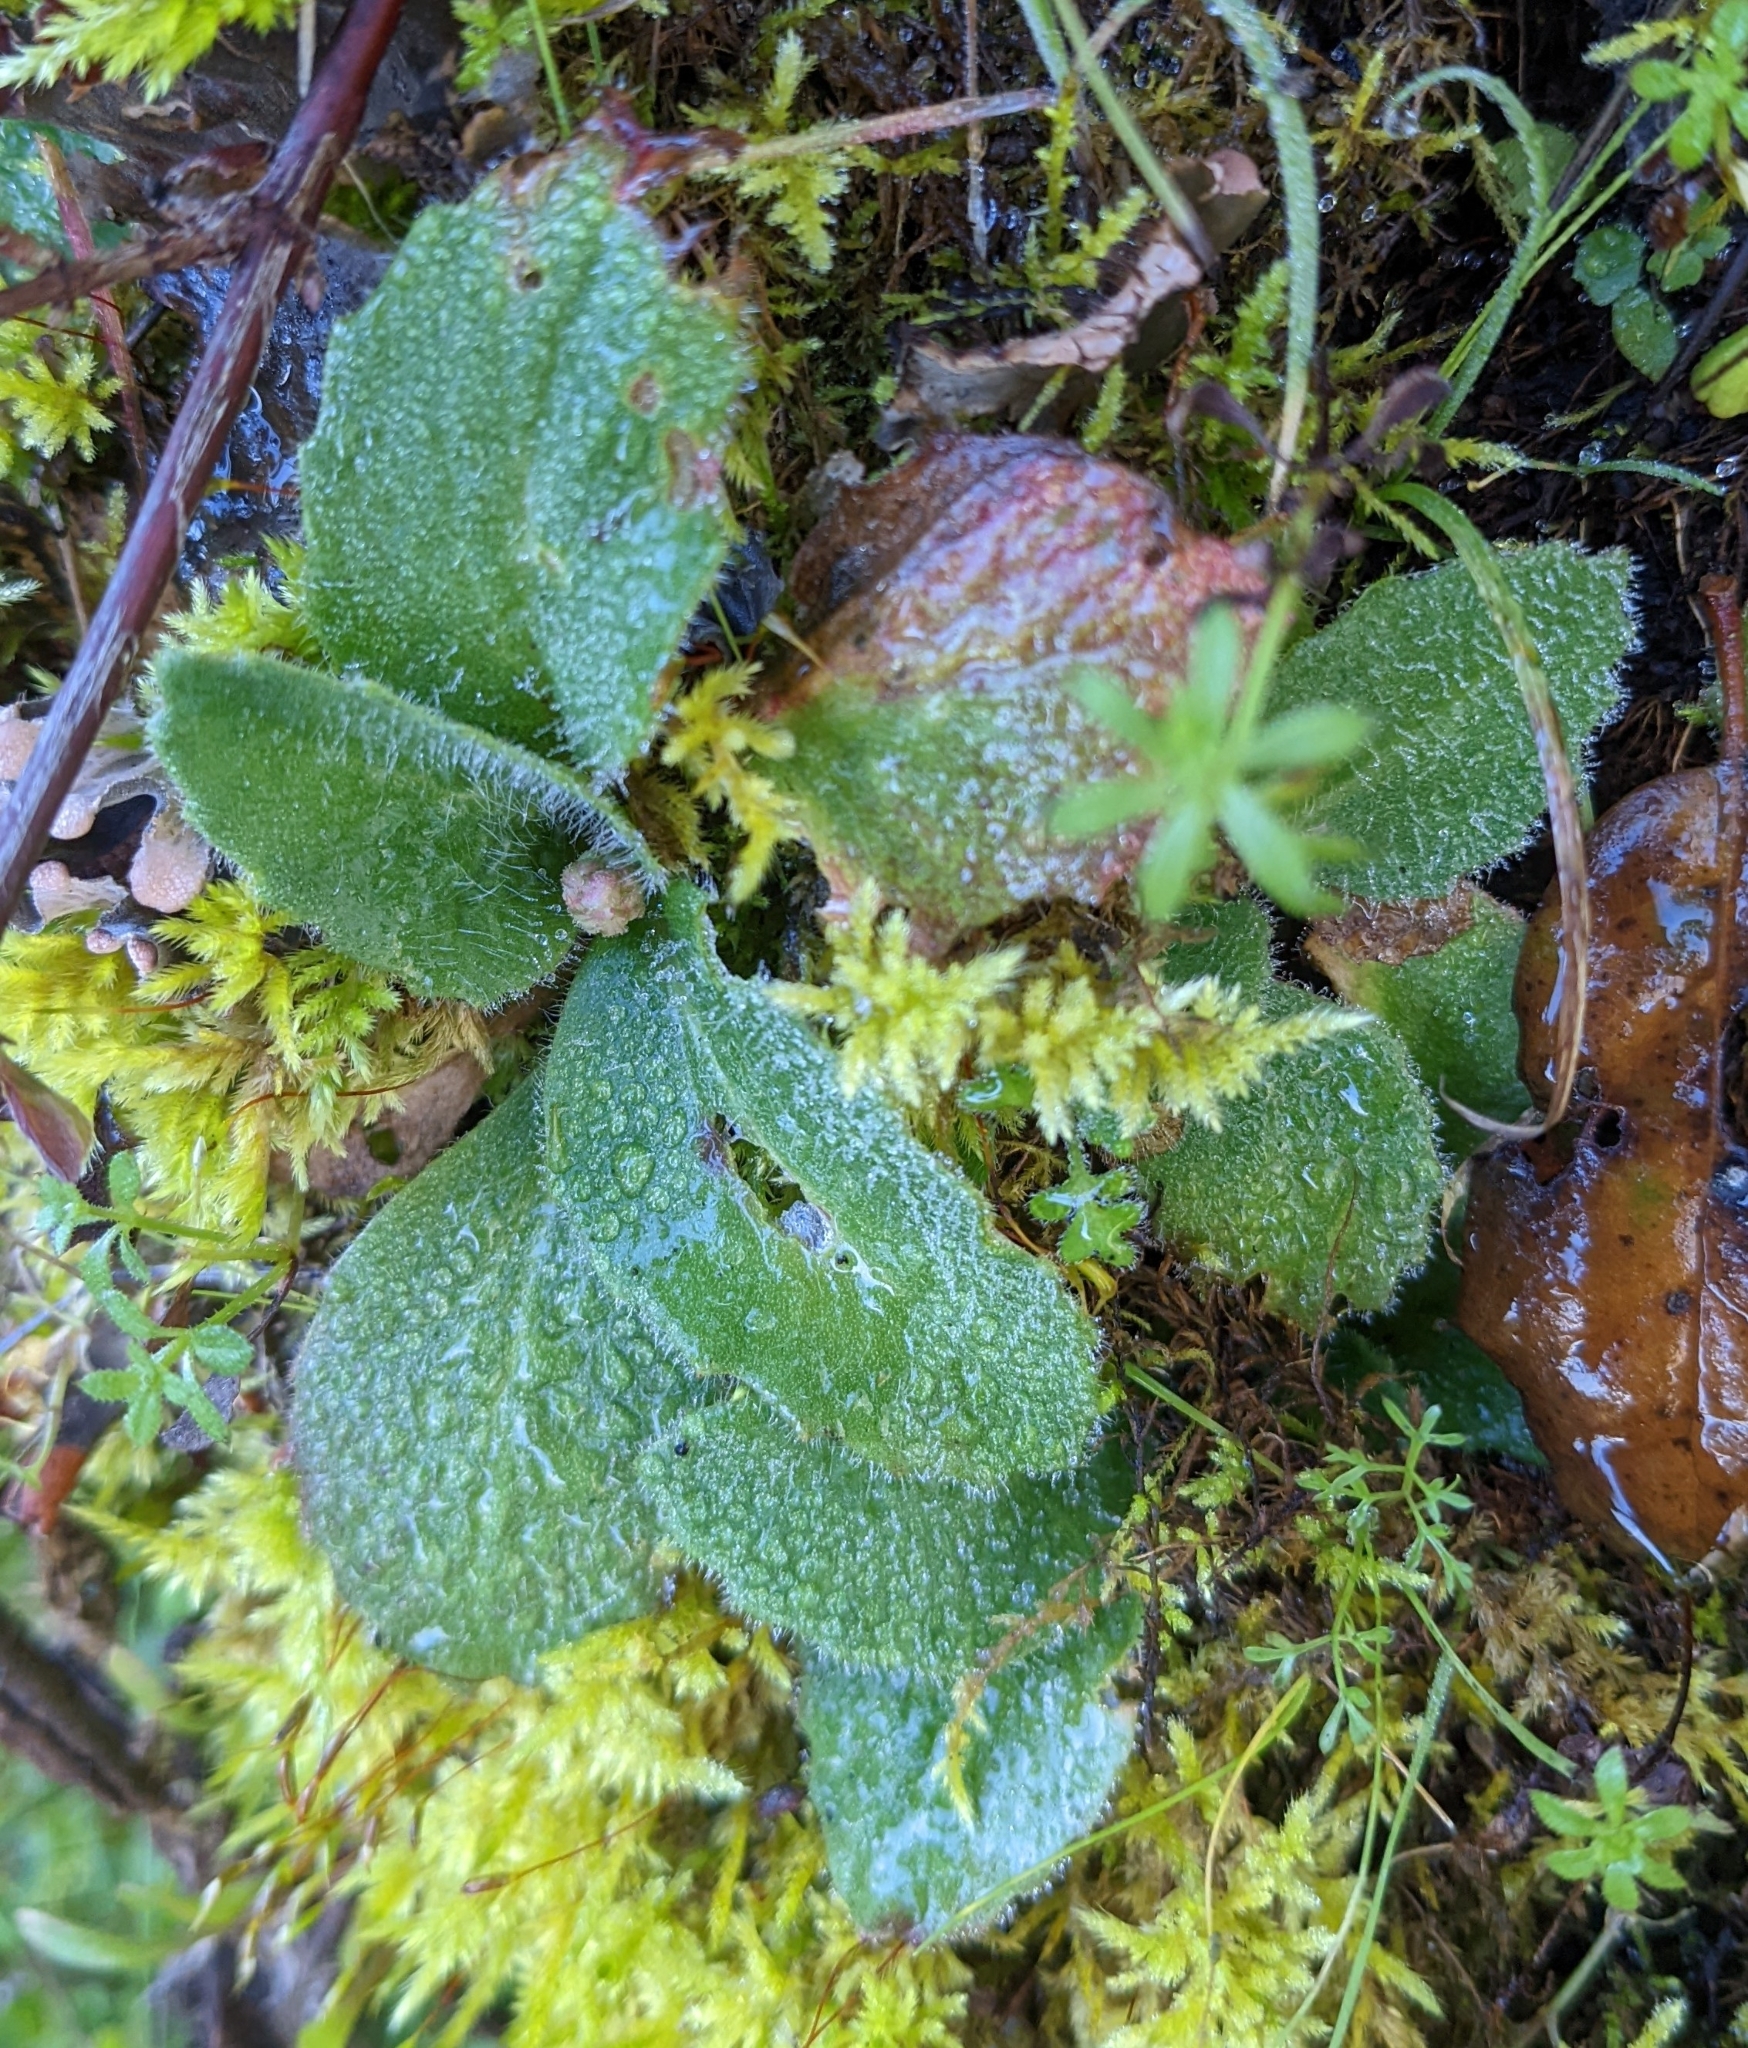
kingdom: Plantae
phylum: Tracheophyta
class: Magnoliopsida
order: Saxifragales
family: Saxifragaceae
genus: Micranthes
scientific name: Micranthes californica
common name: California saxifrage
